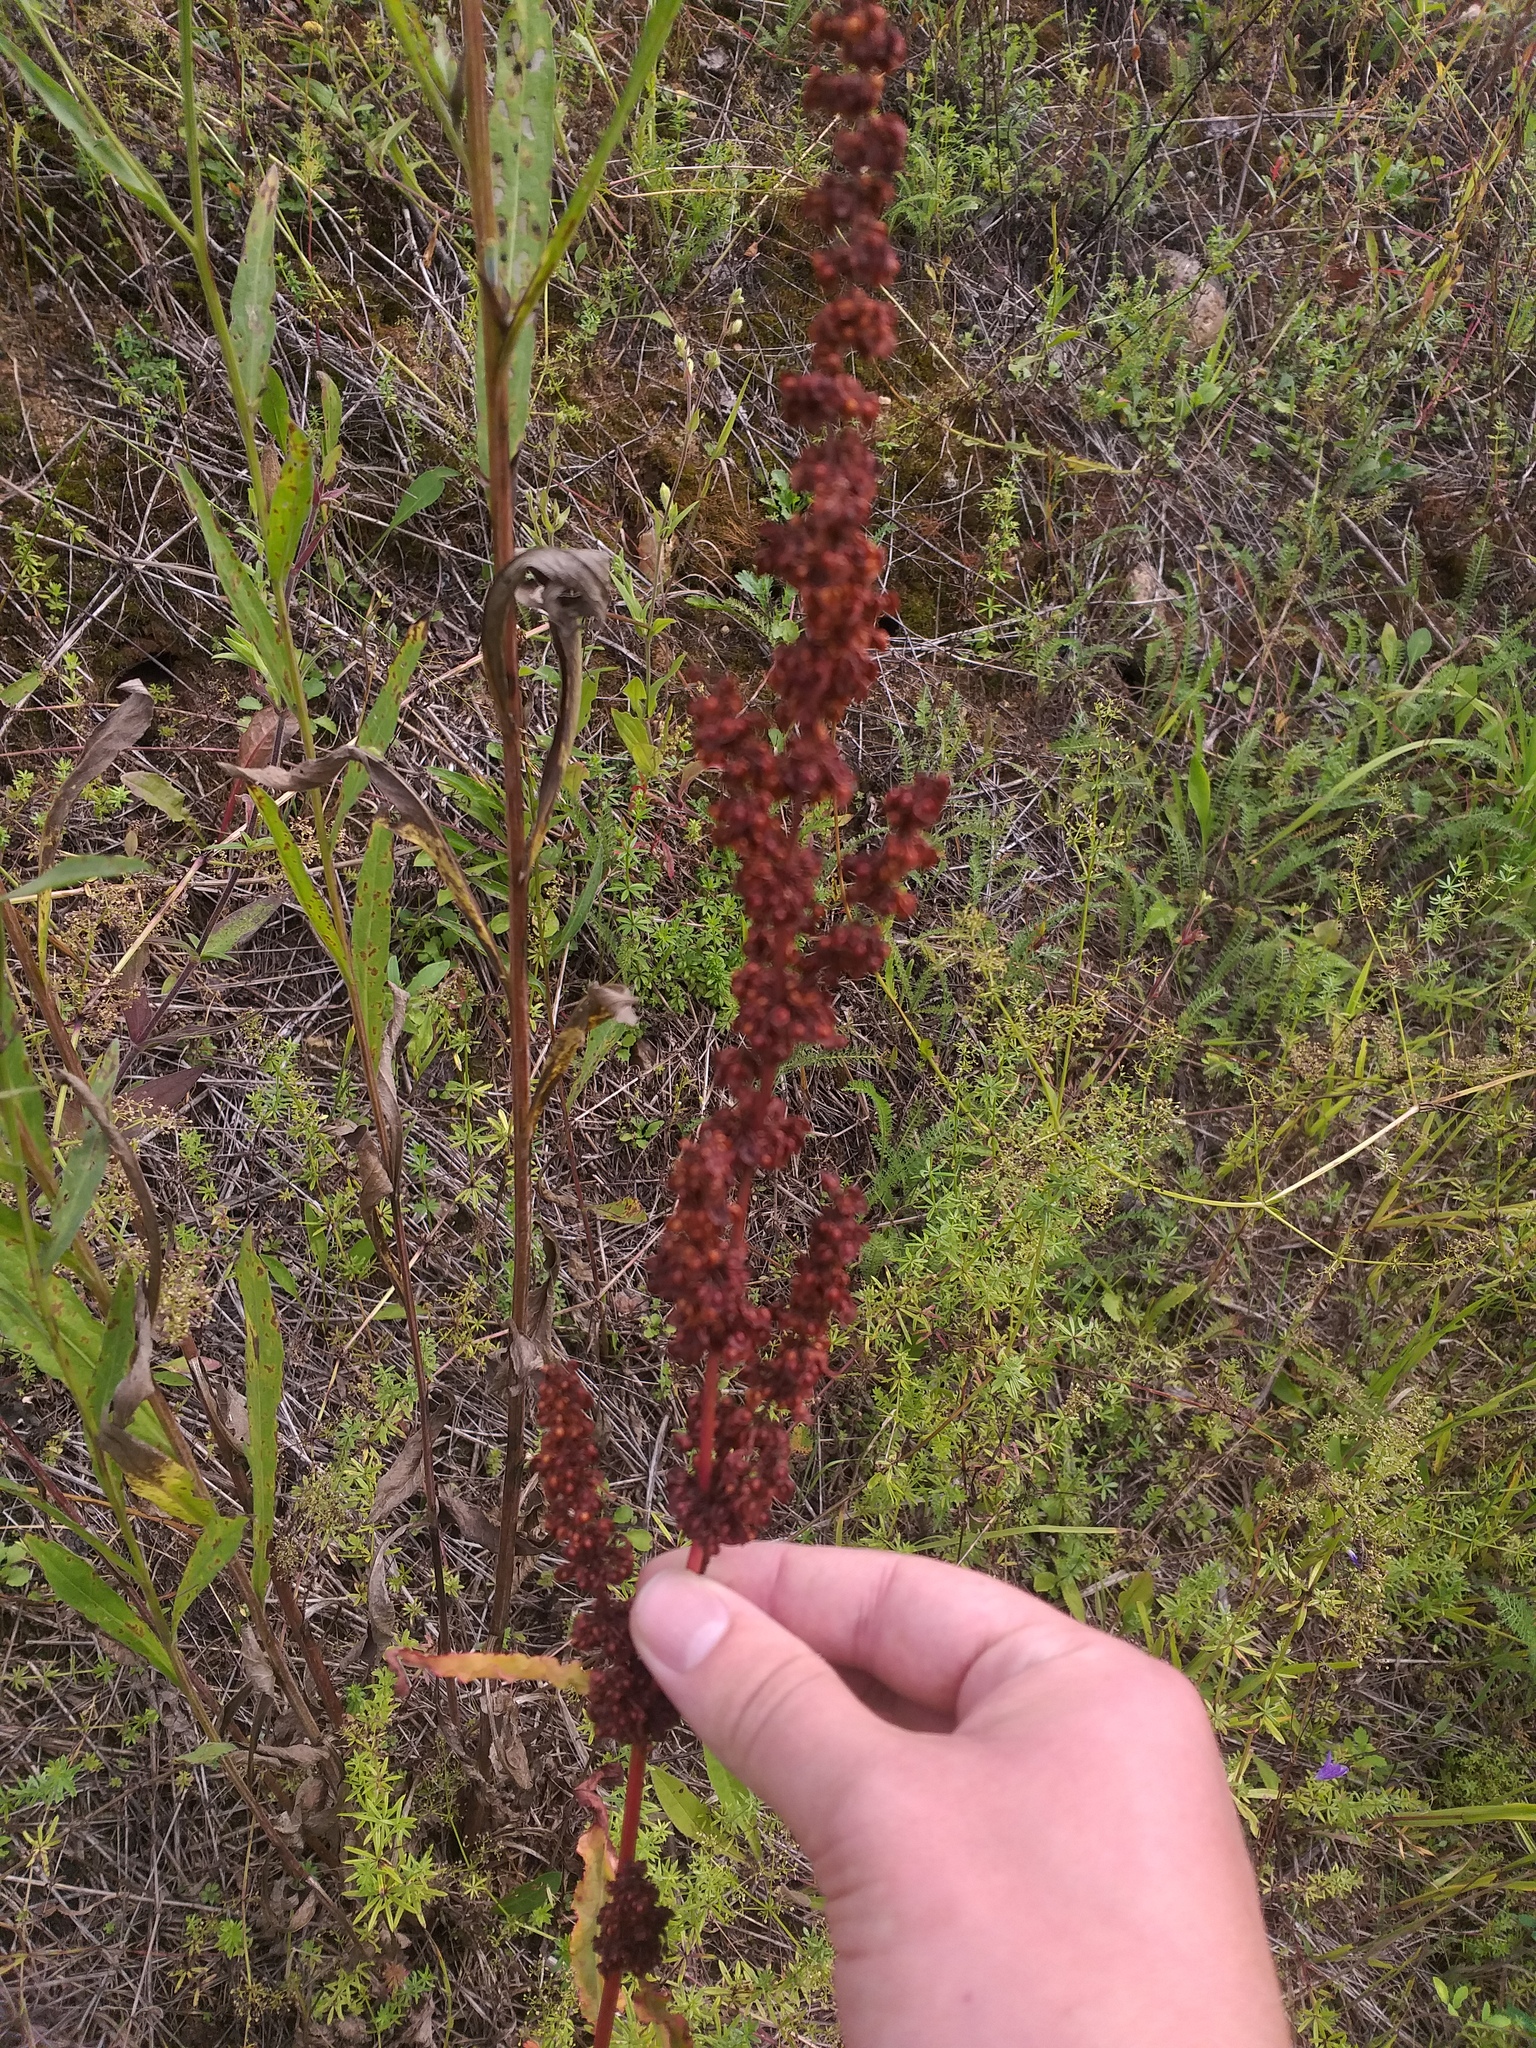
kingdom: Plantae
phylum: Tracheophyta
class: Magnoliopsida
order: Caryophyllales
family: Polygonaceae
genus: Rumex
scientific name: Rumex crispus
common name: Curled dock
